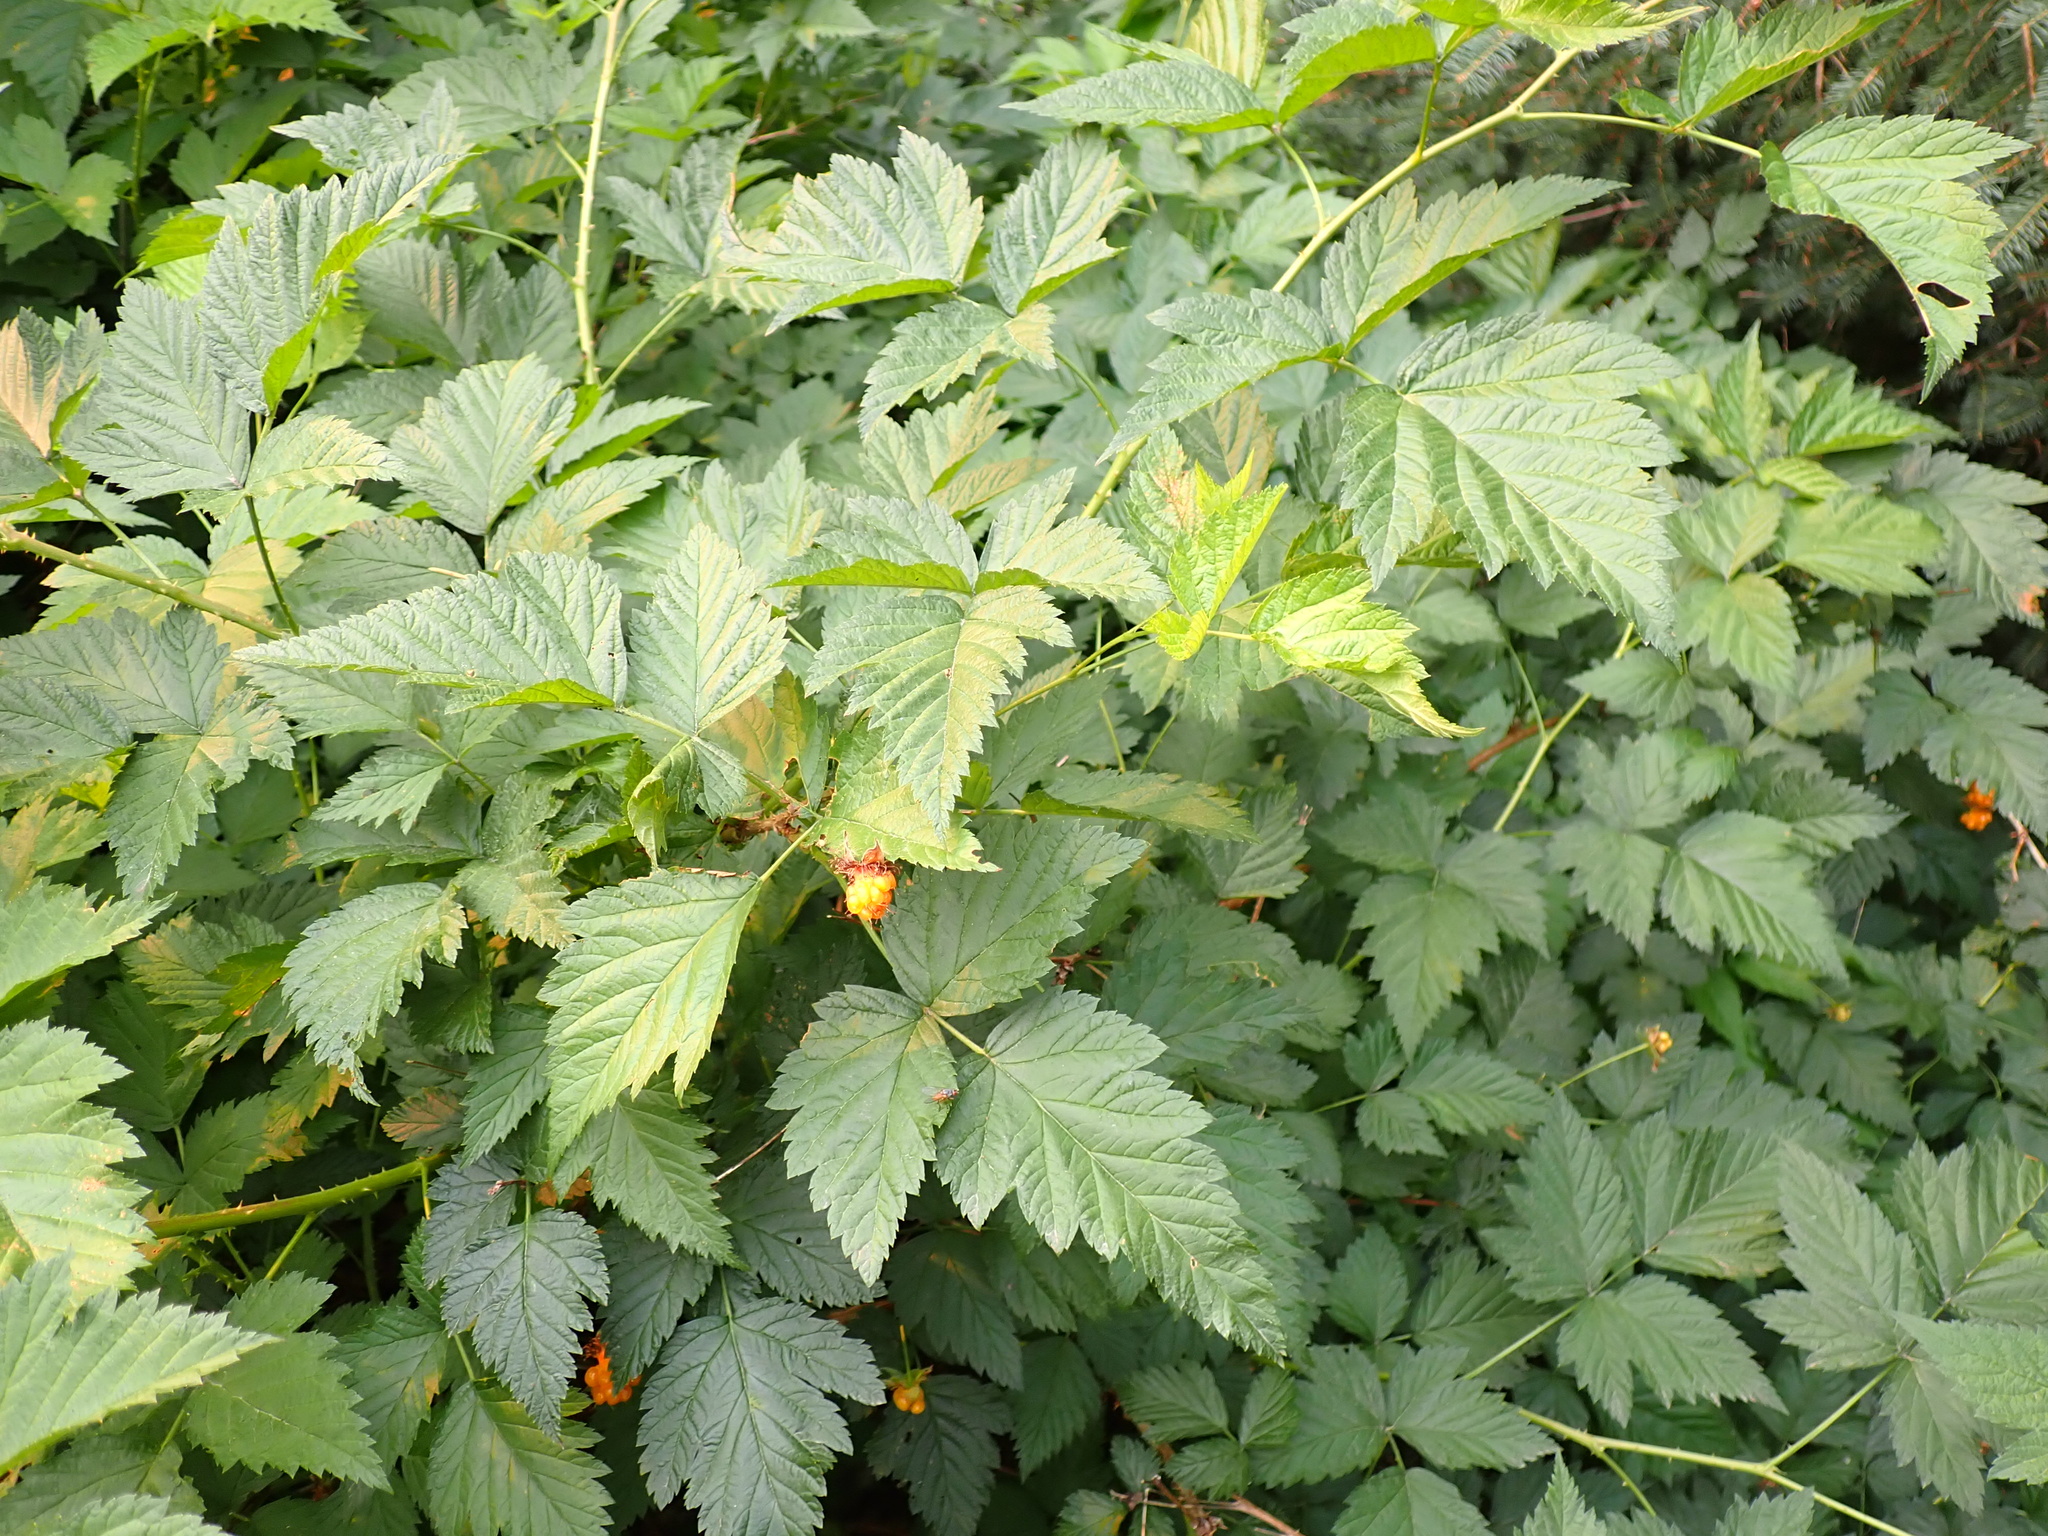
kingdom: Plantae
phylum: Tracheophyta
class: Magnoliopsida
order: Rosales
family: Rosaceae
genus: Rubus
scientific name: Rubus spectabilis
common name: Salmonberry
